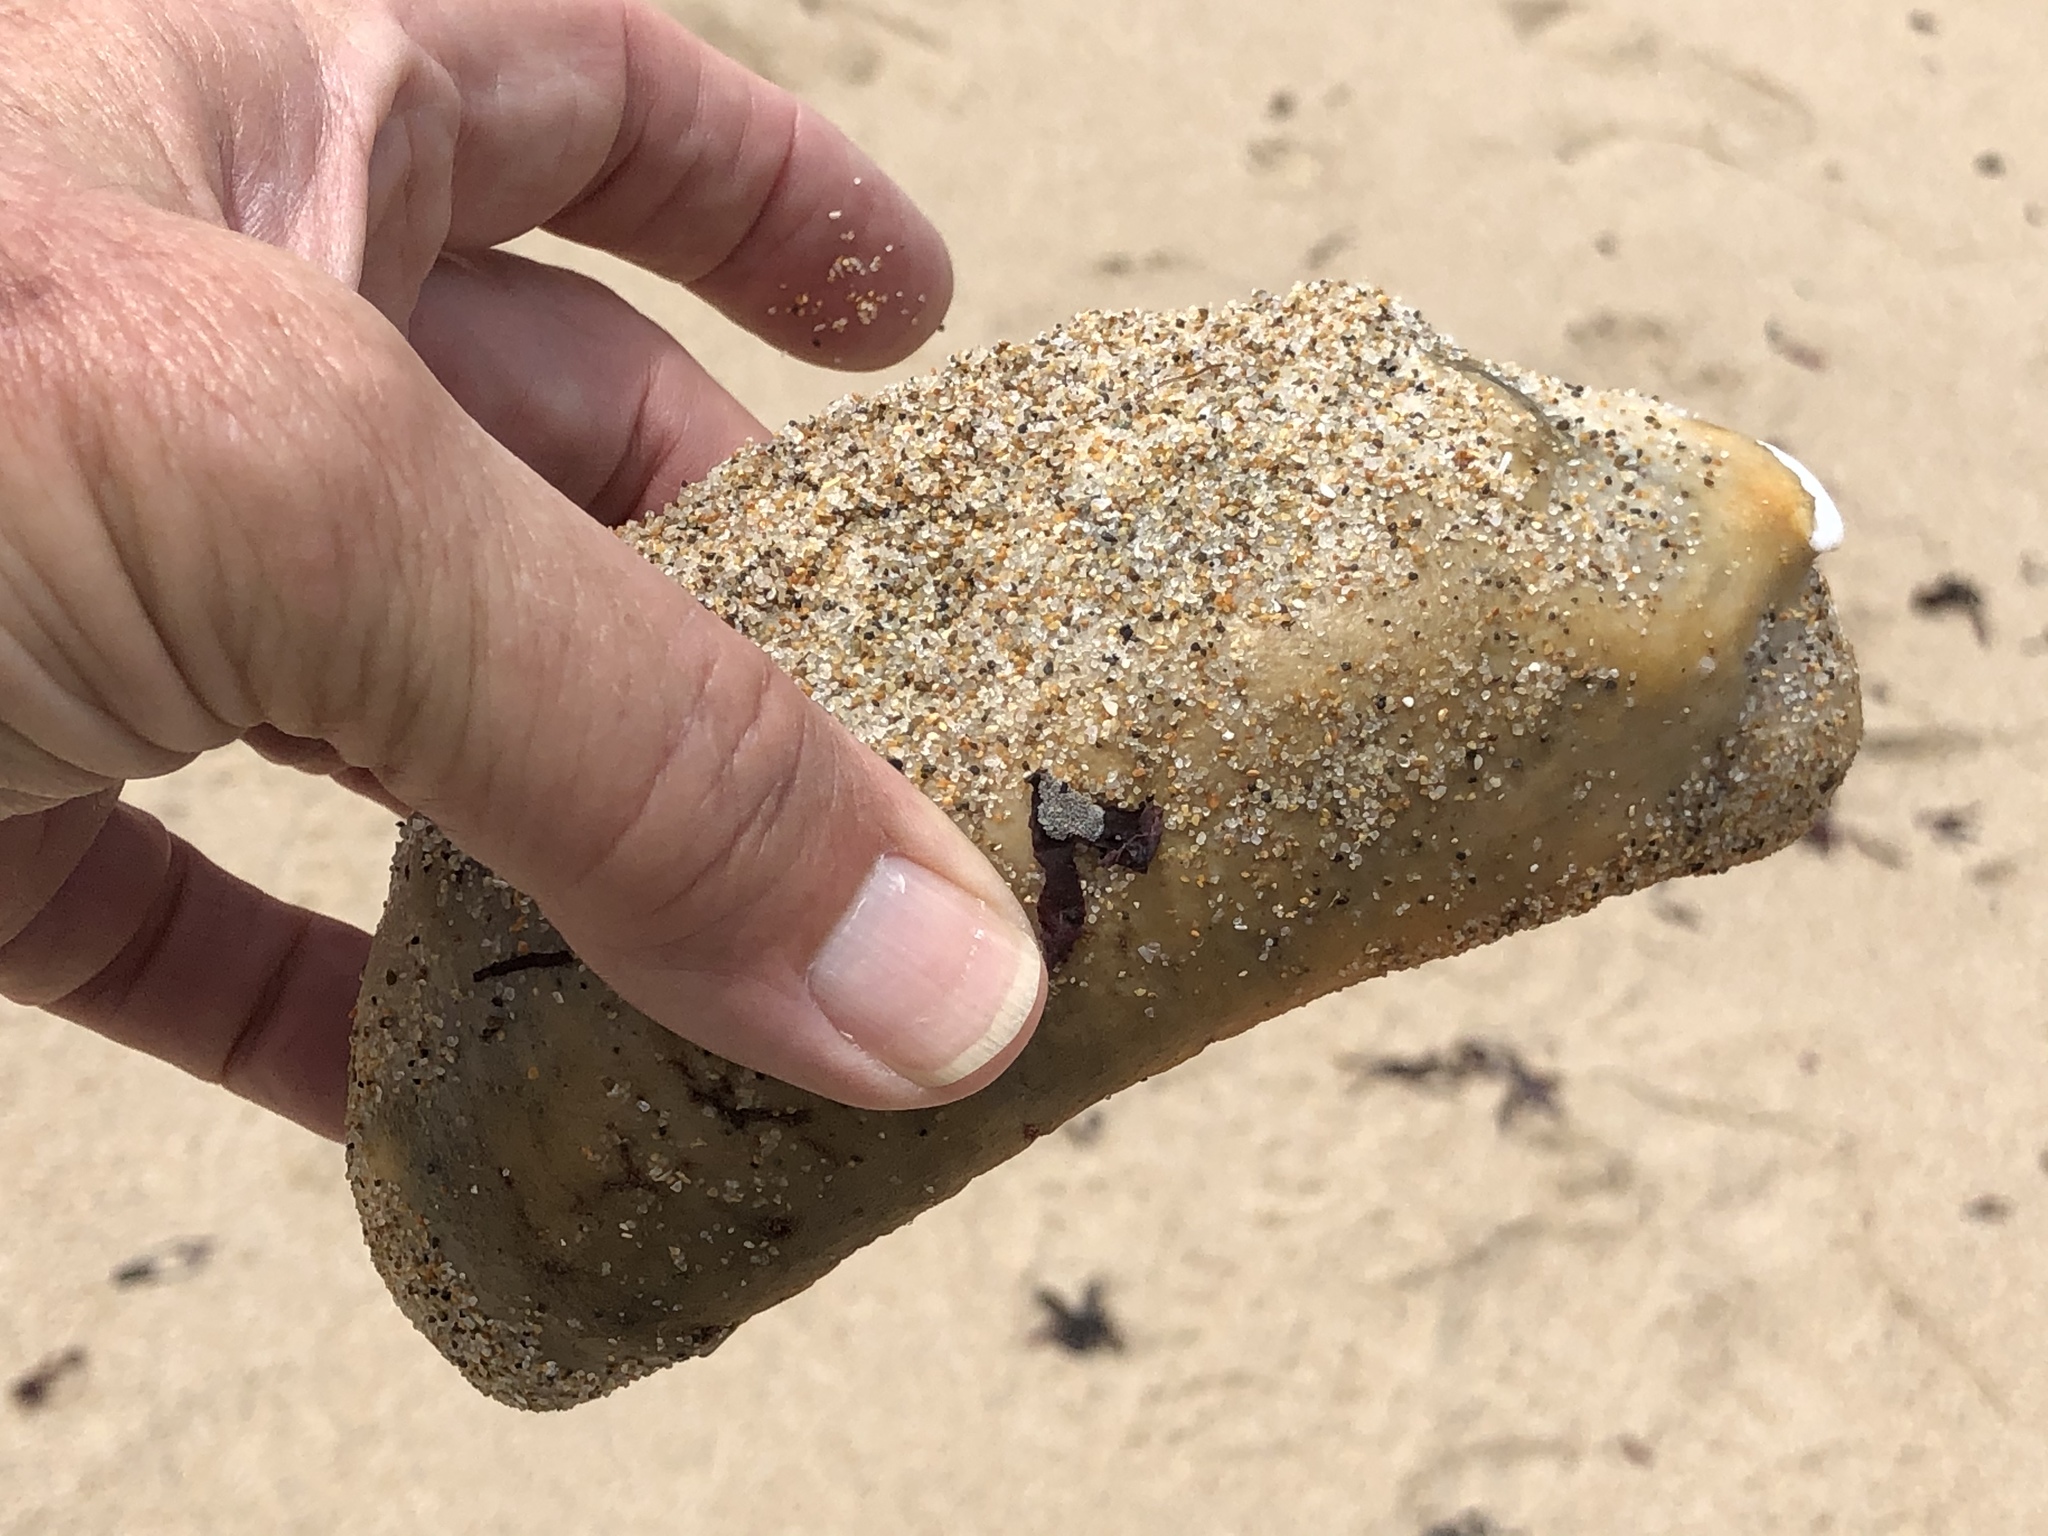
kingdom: Animalia
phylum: Mollusca
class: Polyplacophora
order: Chitonida
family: Acanthochitonidae
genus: Cryptochiton
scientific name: Cryptochiton stelleri
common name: Giant pacific chiton
